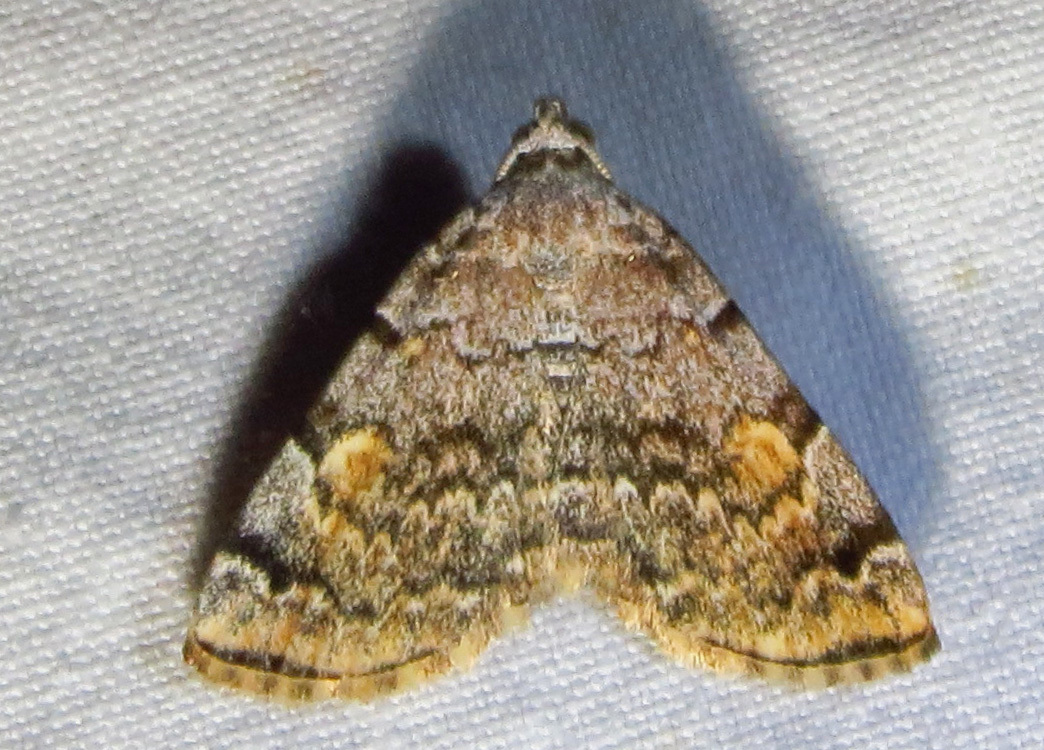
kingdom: Animalia
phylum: Arthropoda
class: Insecta
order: Lepidoptera
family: Erebidae
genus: Idia
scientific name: Idia americalis
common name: American idia moth
